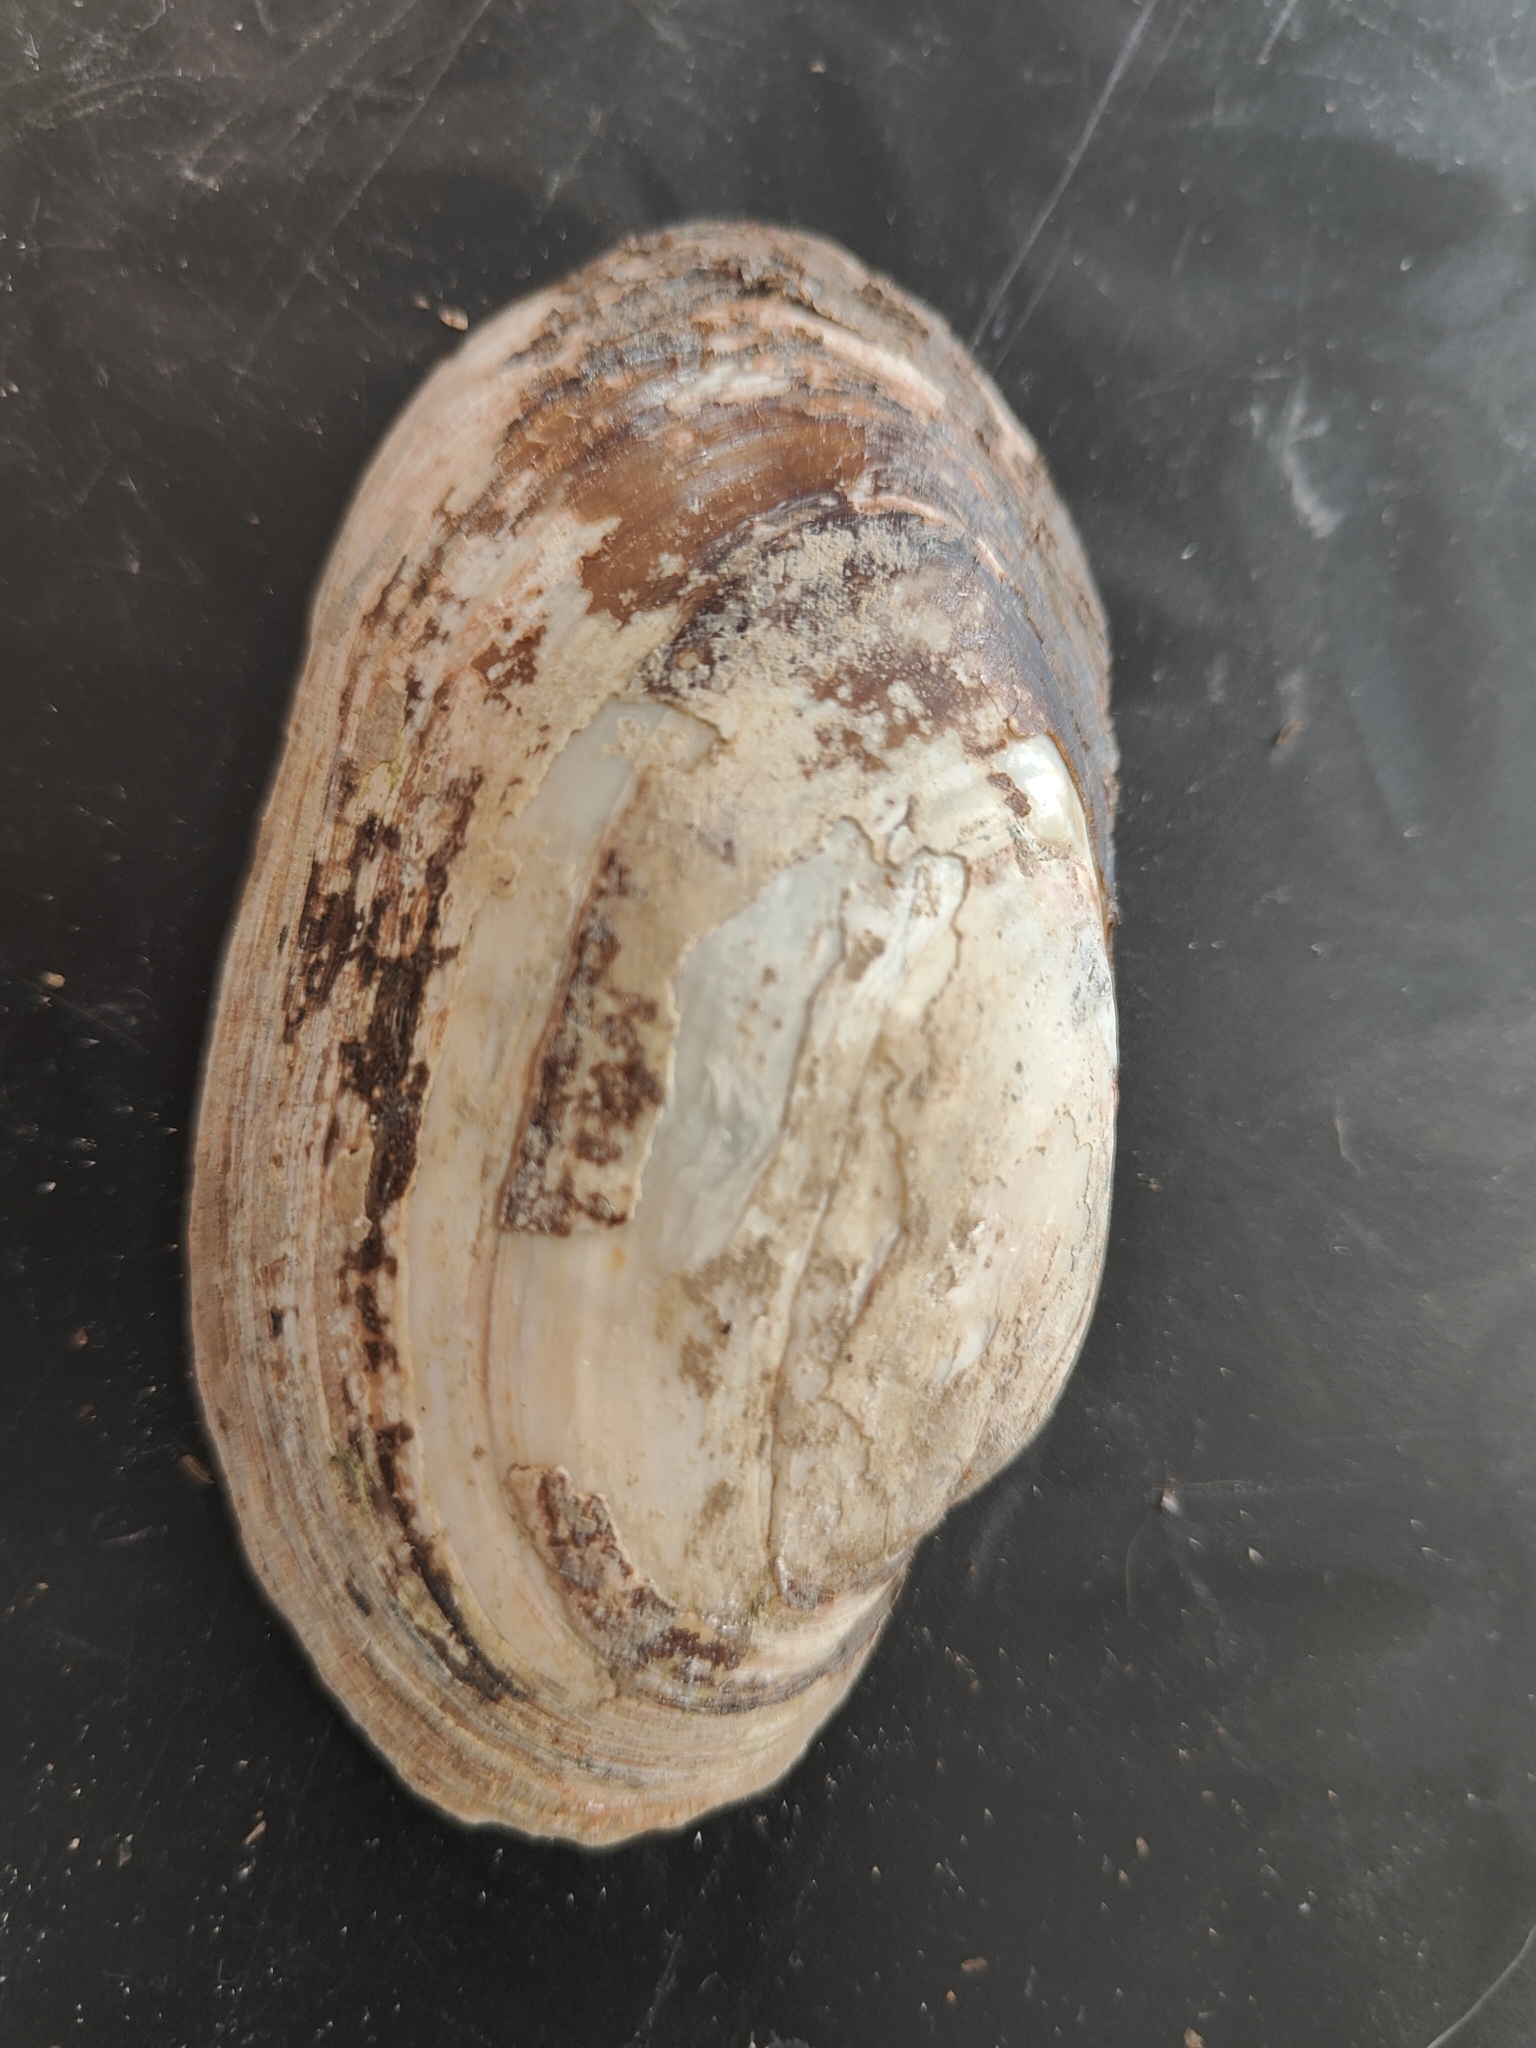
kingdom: Animalia
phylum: Mollusca
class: Bivalvia
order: Unionida
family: Unionidae
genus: Lampsilis
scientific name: Lampsilis siliquoidea
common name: Fatmucket
